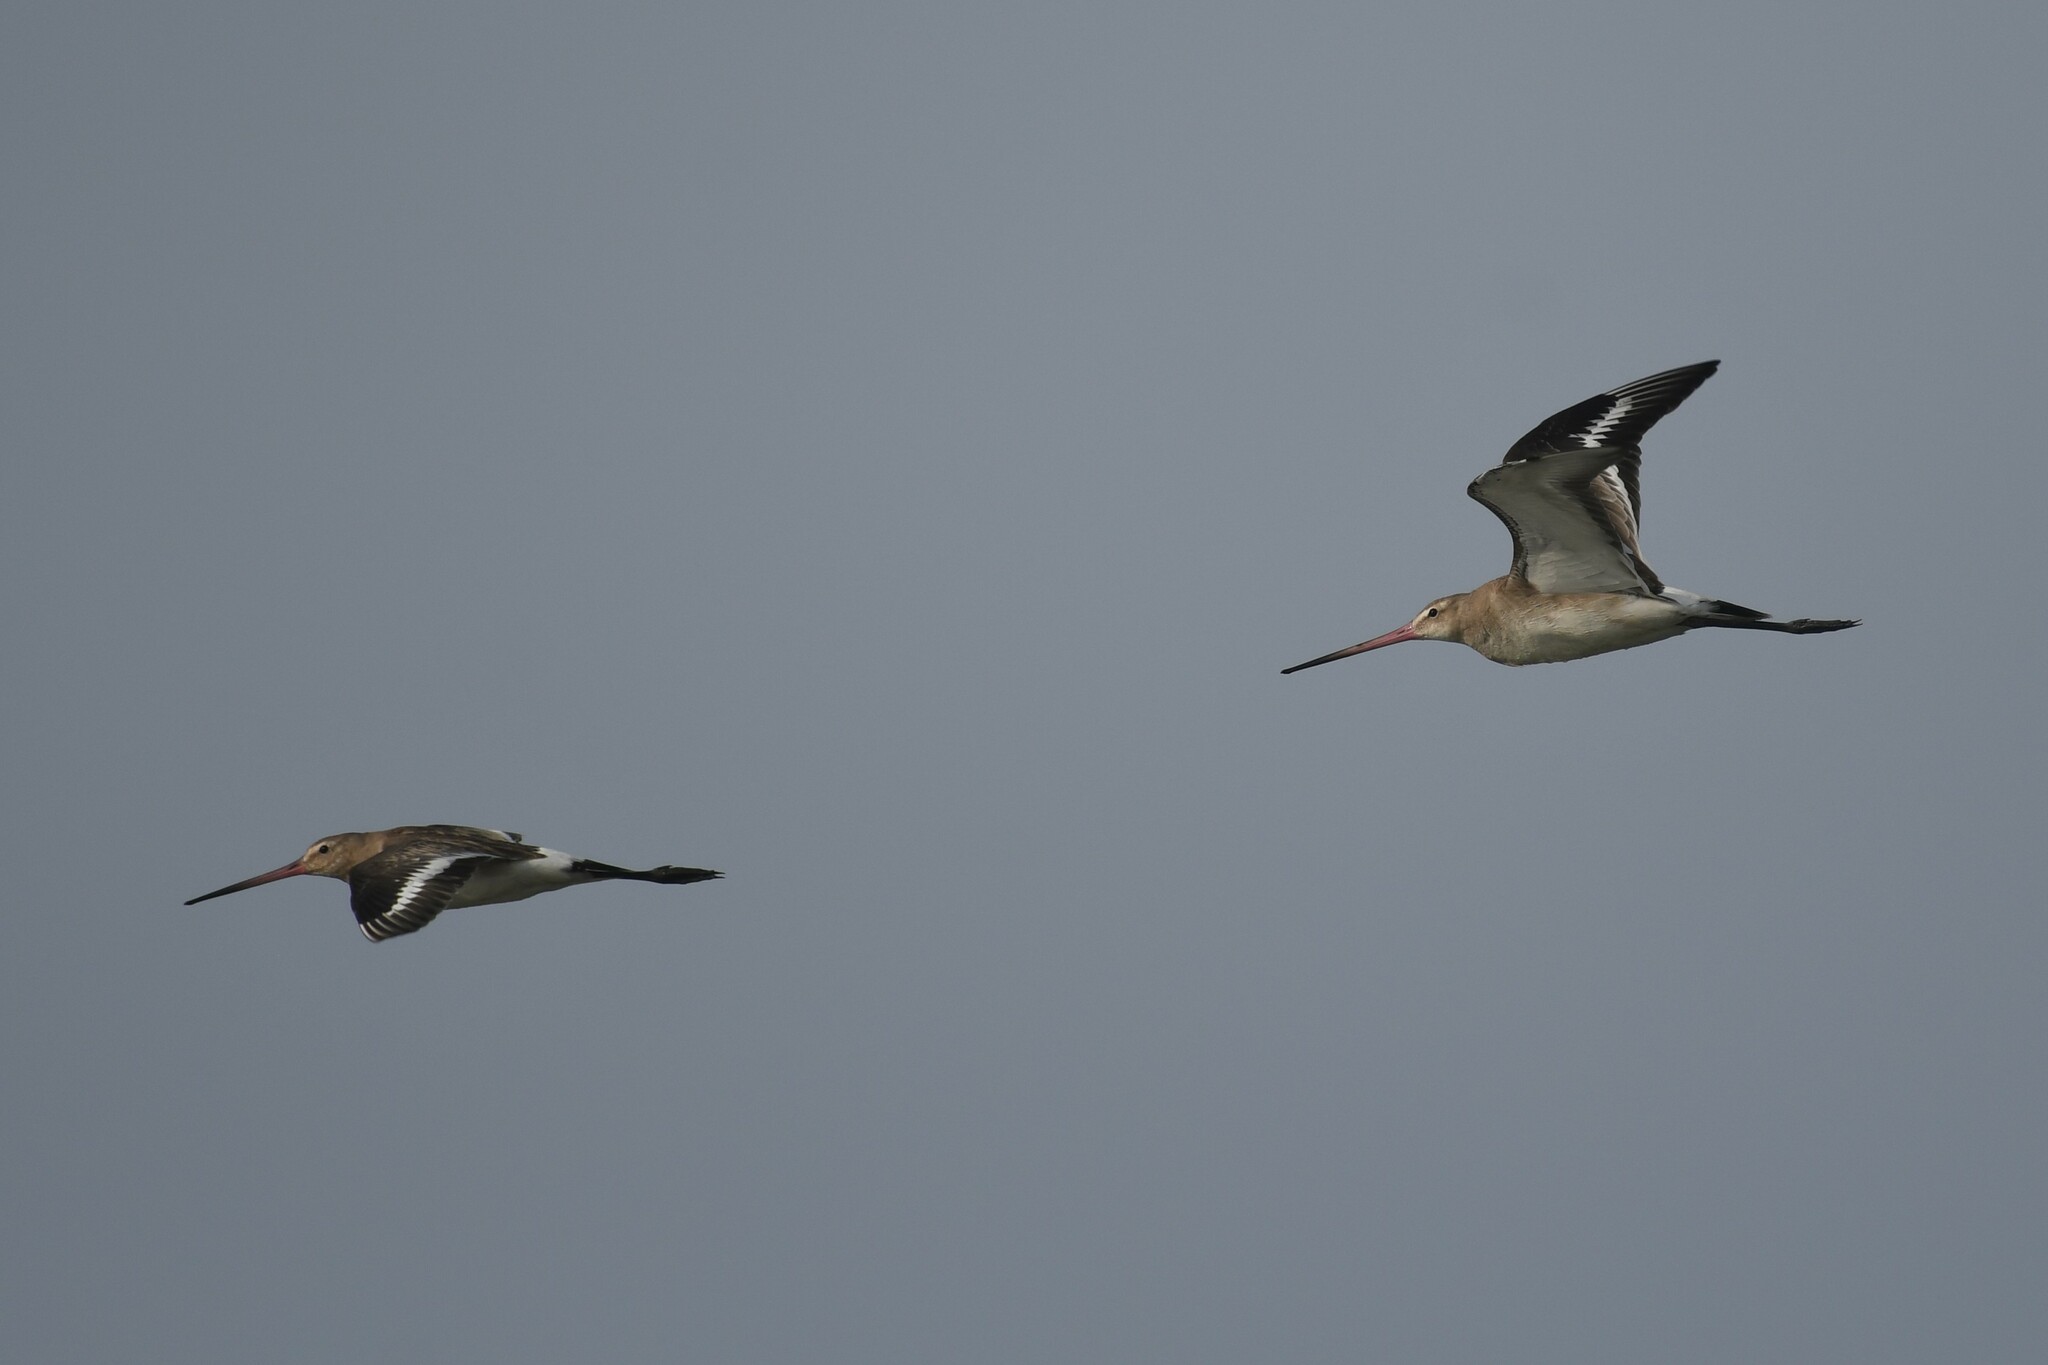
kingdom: Animalia
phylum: Chordata
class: Aves
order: Charadriiformes
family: Scolopacidae
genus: Limosa
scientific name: Limosa limosa
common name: Black-tailed godwit
